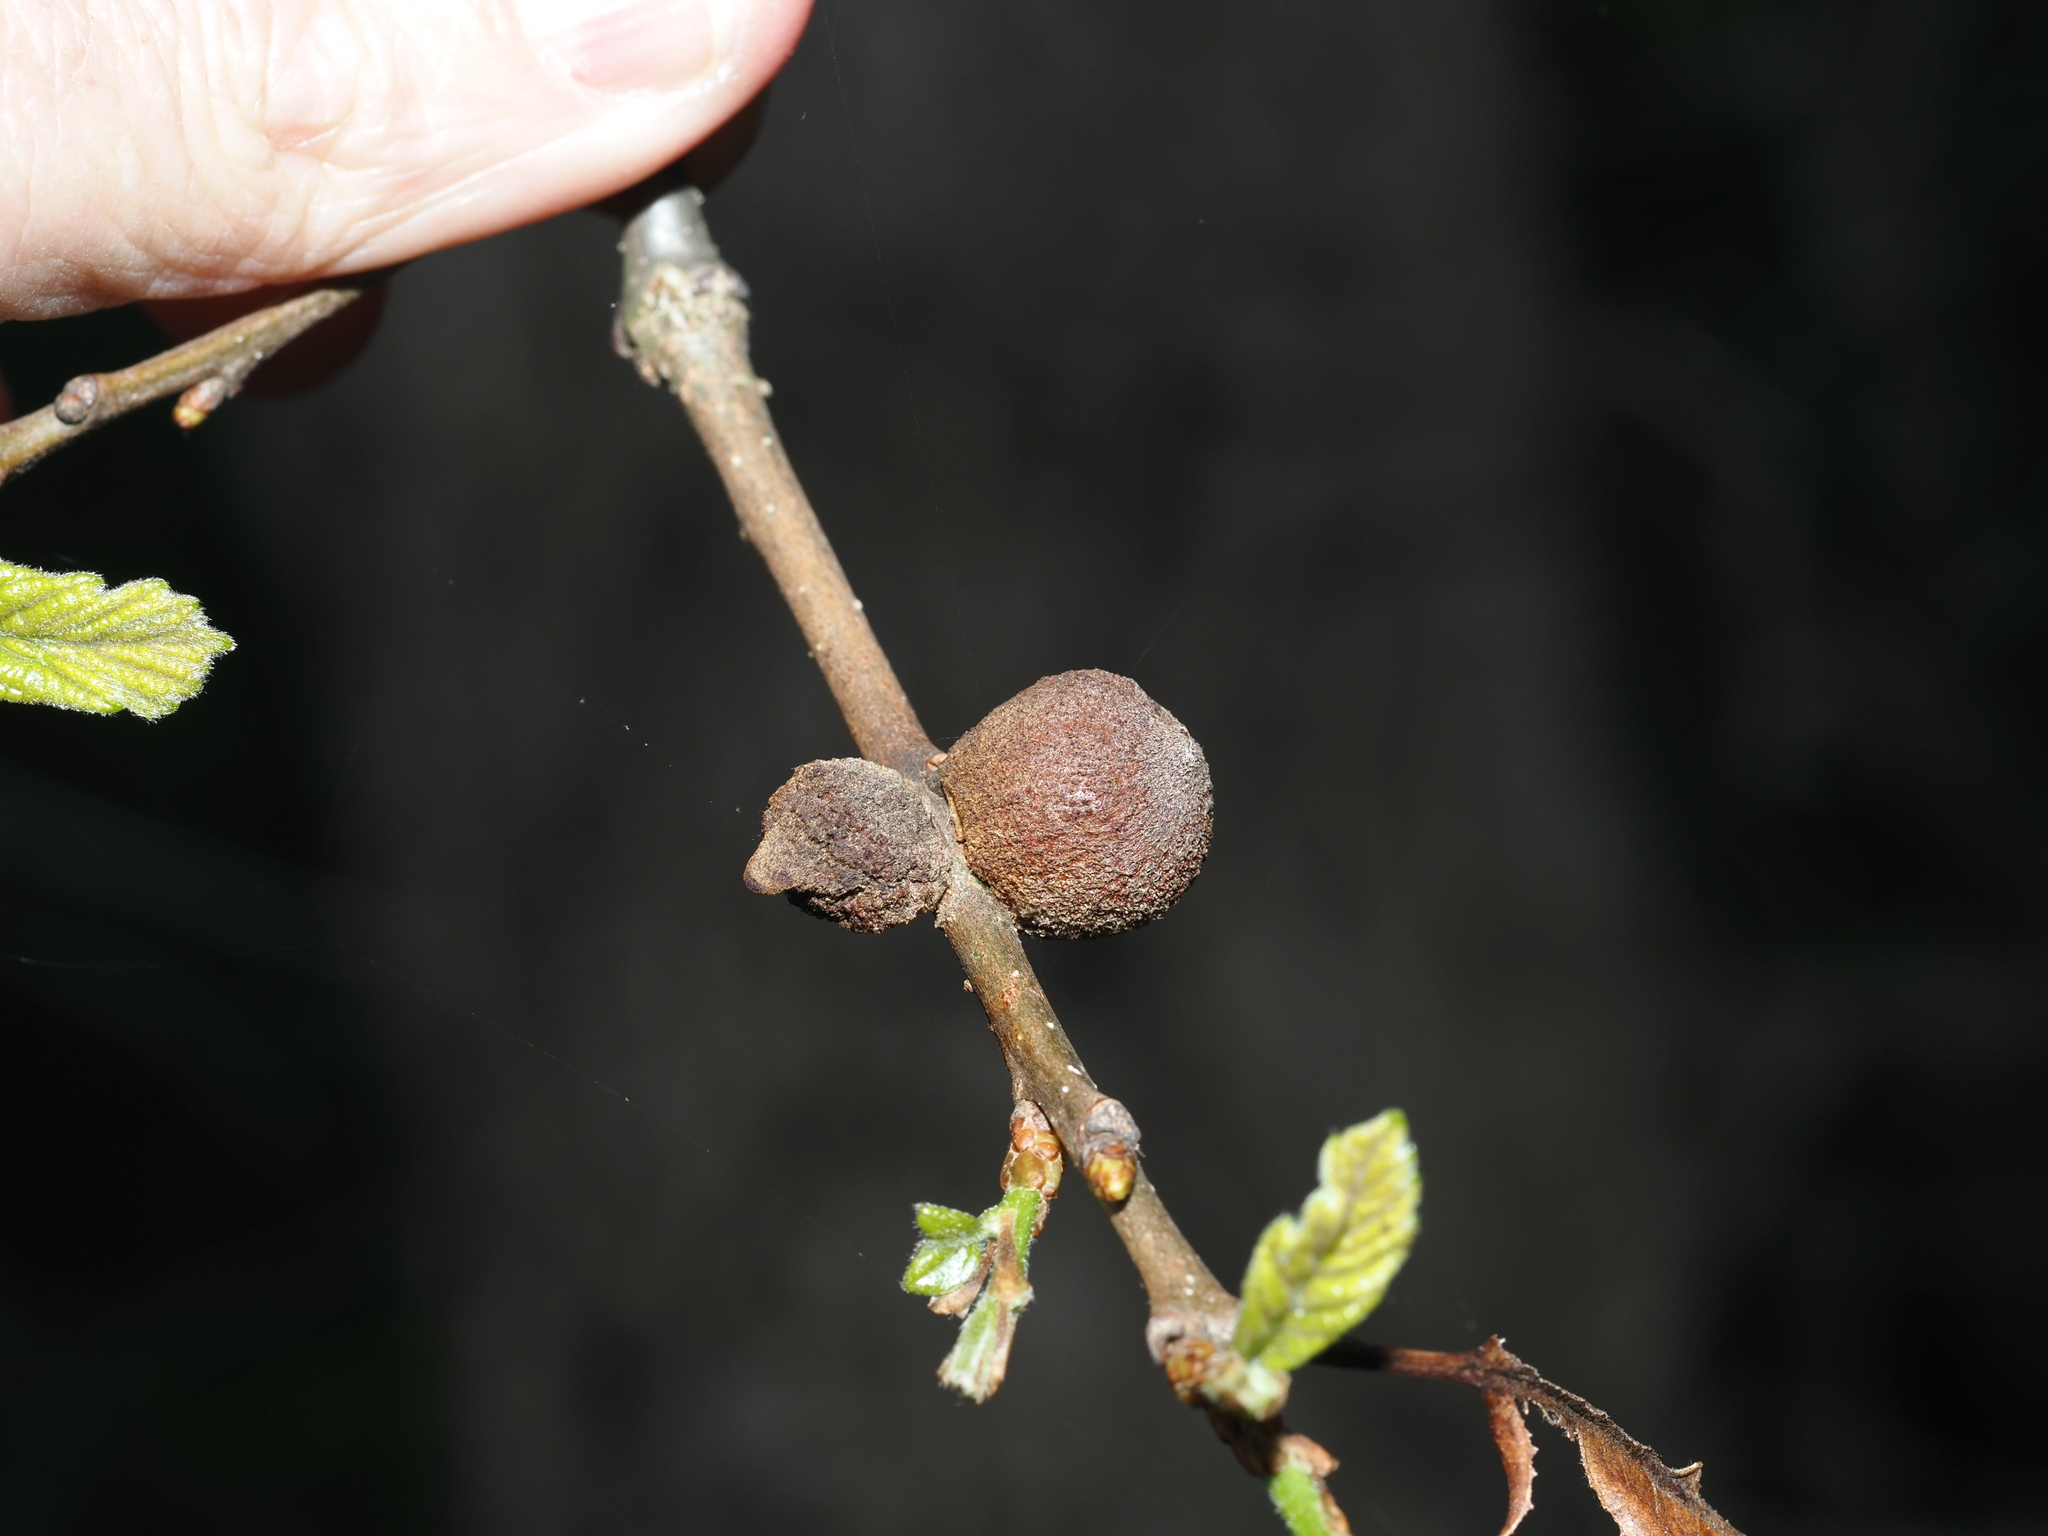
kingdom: Animalia
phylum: Arthropoda
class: Insecta
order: Hymenoptera
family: Cynipidae
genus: Disholcaspis
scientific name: Disholcaspis
